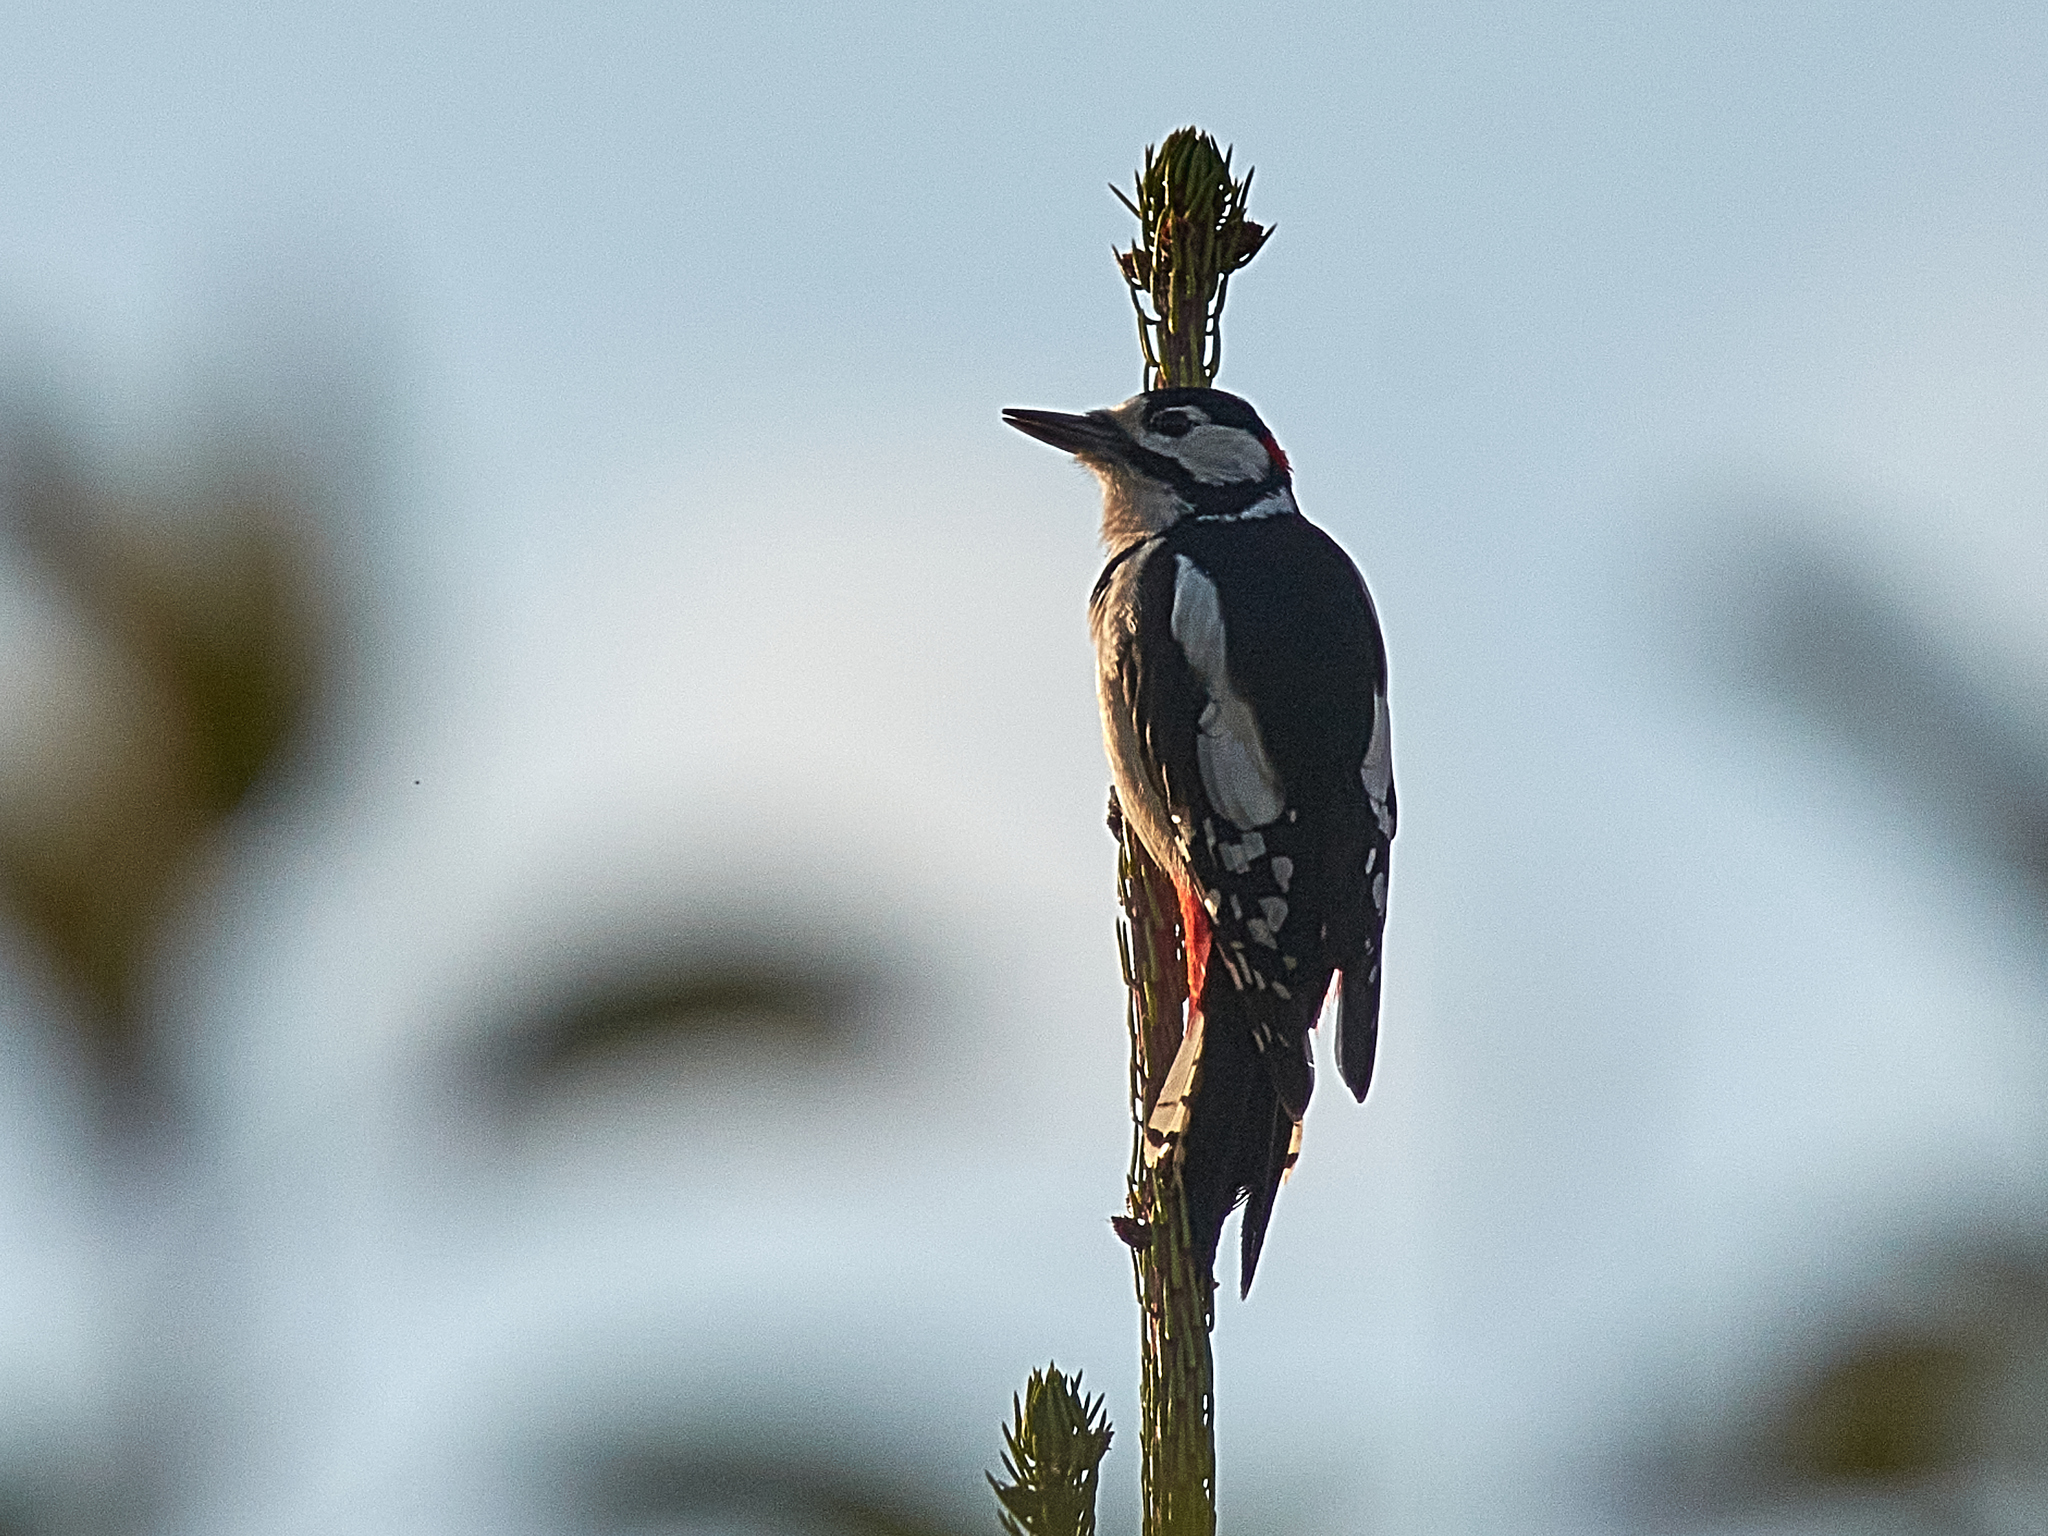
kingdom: Animalia
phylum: Chordata
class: Aves
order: Piciformes
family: Picidae
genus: Dendrocopos
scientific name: Dendrocopos major
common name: Great spotted woodpecker
